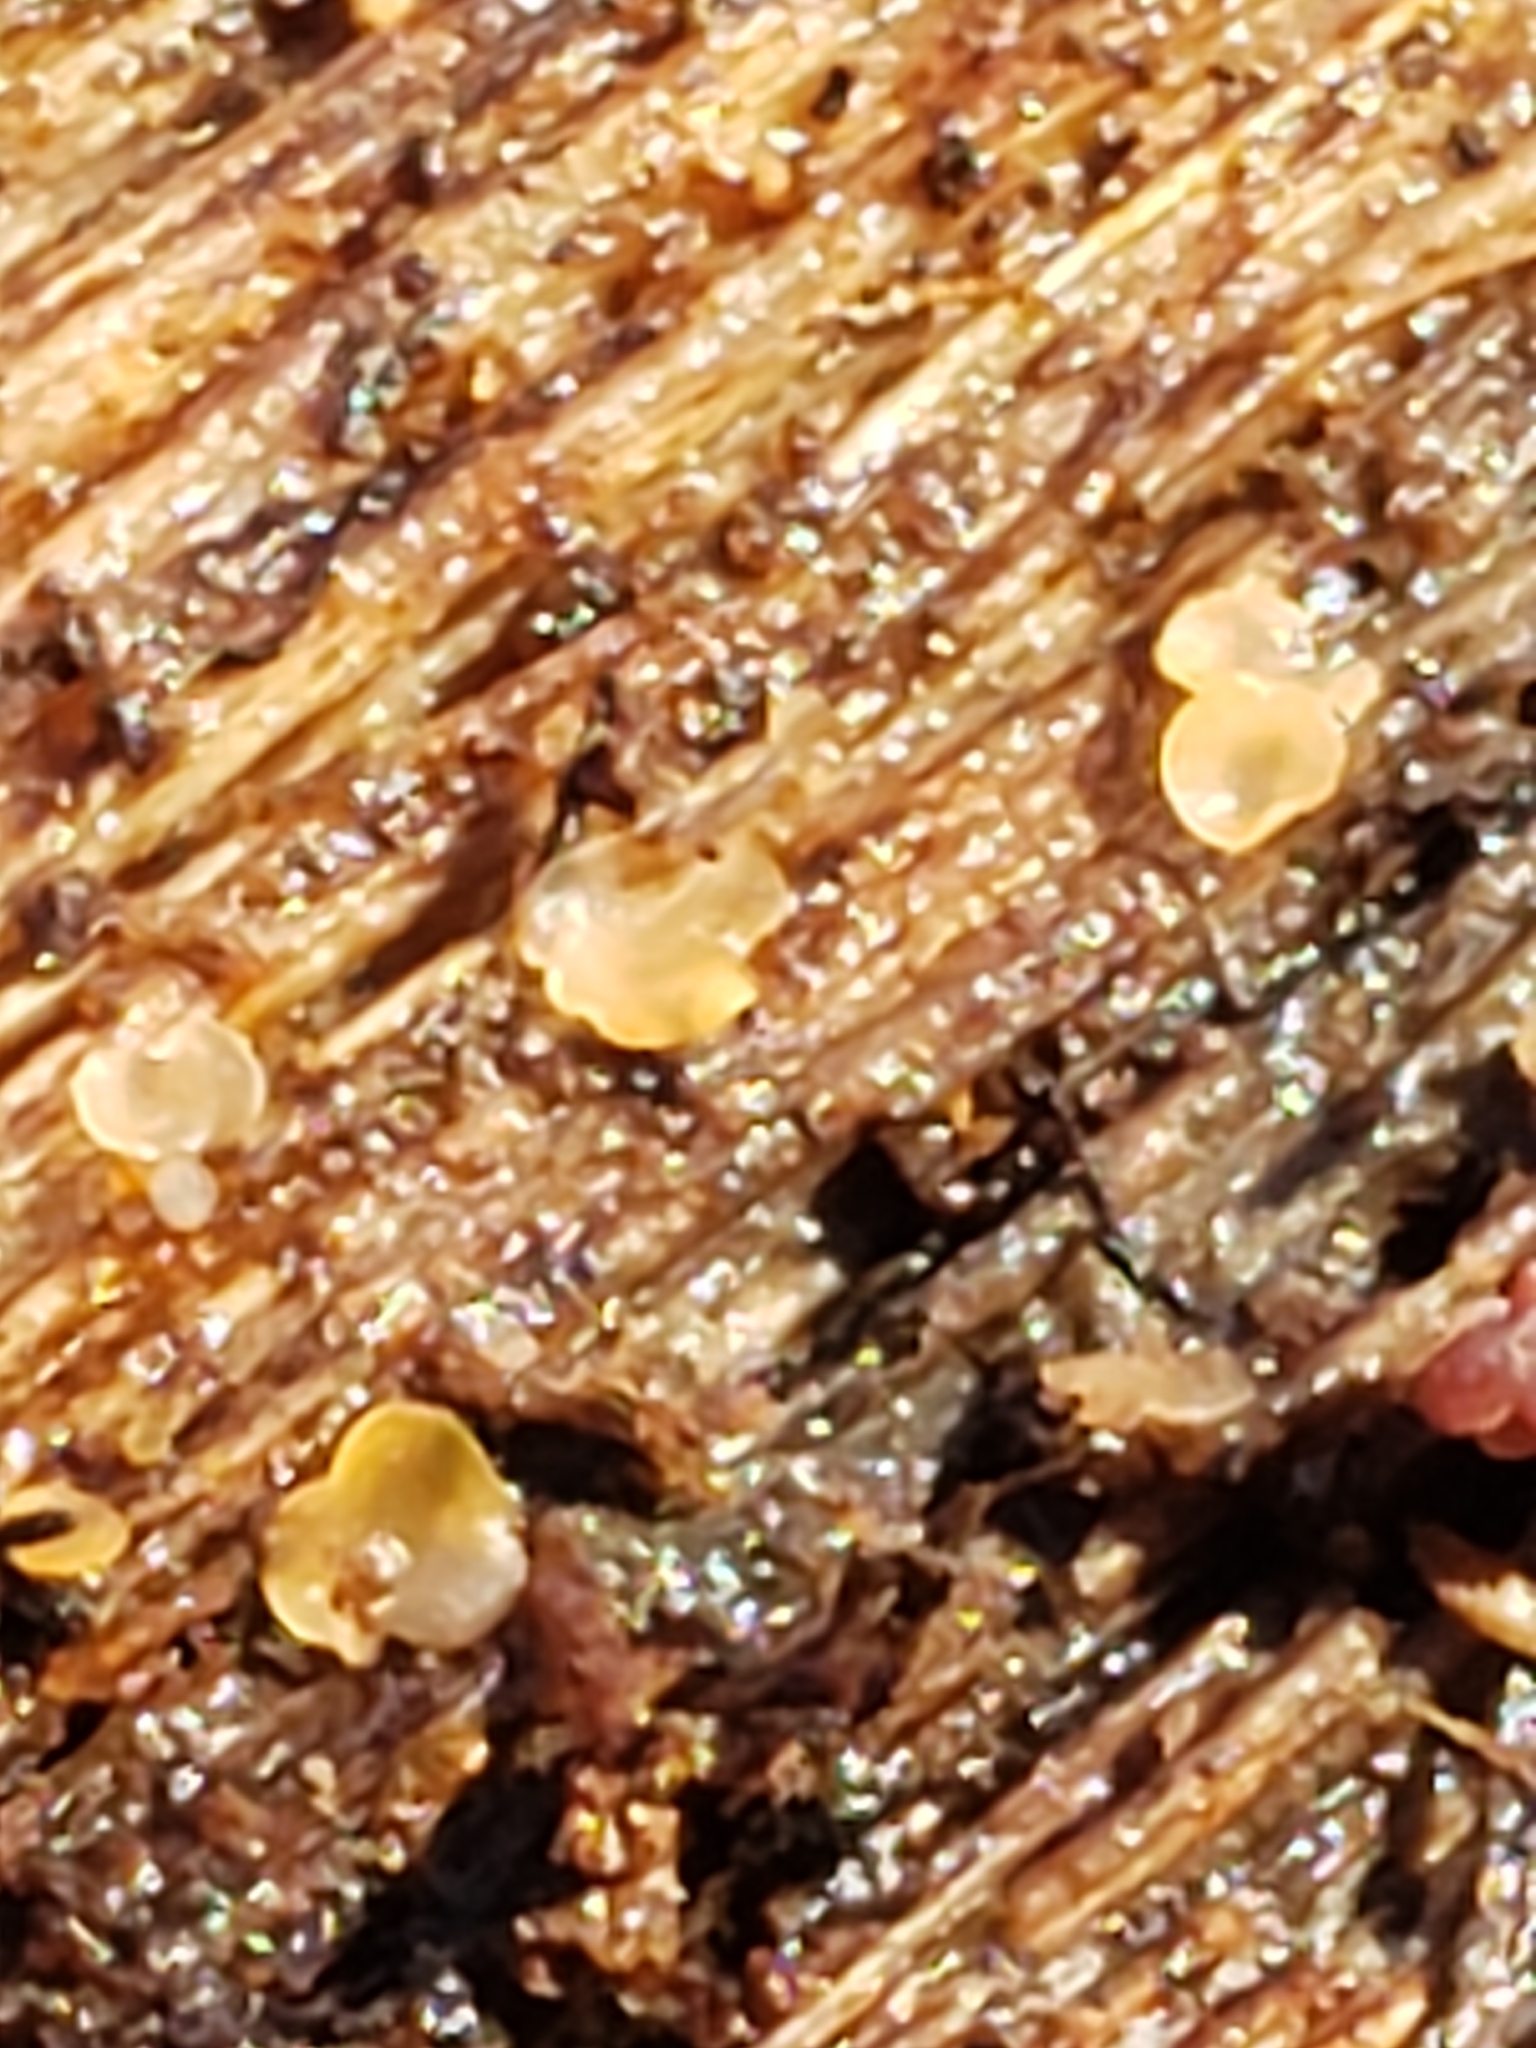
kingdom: Fungi
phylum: Ascomycota
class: Orbiliomycetes
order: Orbiliales
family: Orbiliaceae
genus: Hyalorbilia
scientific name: Hyalorbilia
